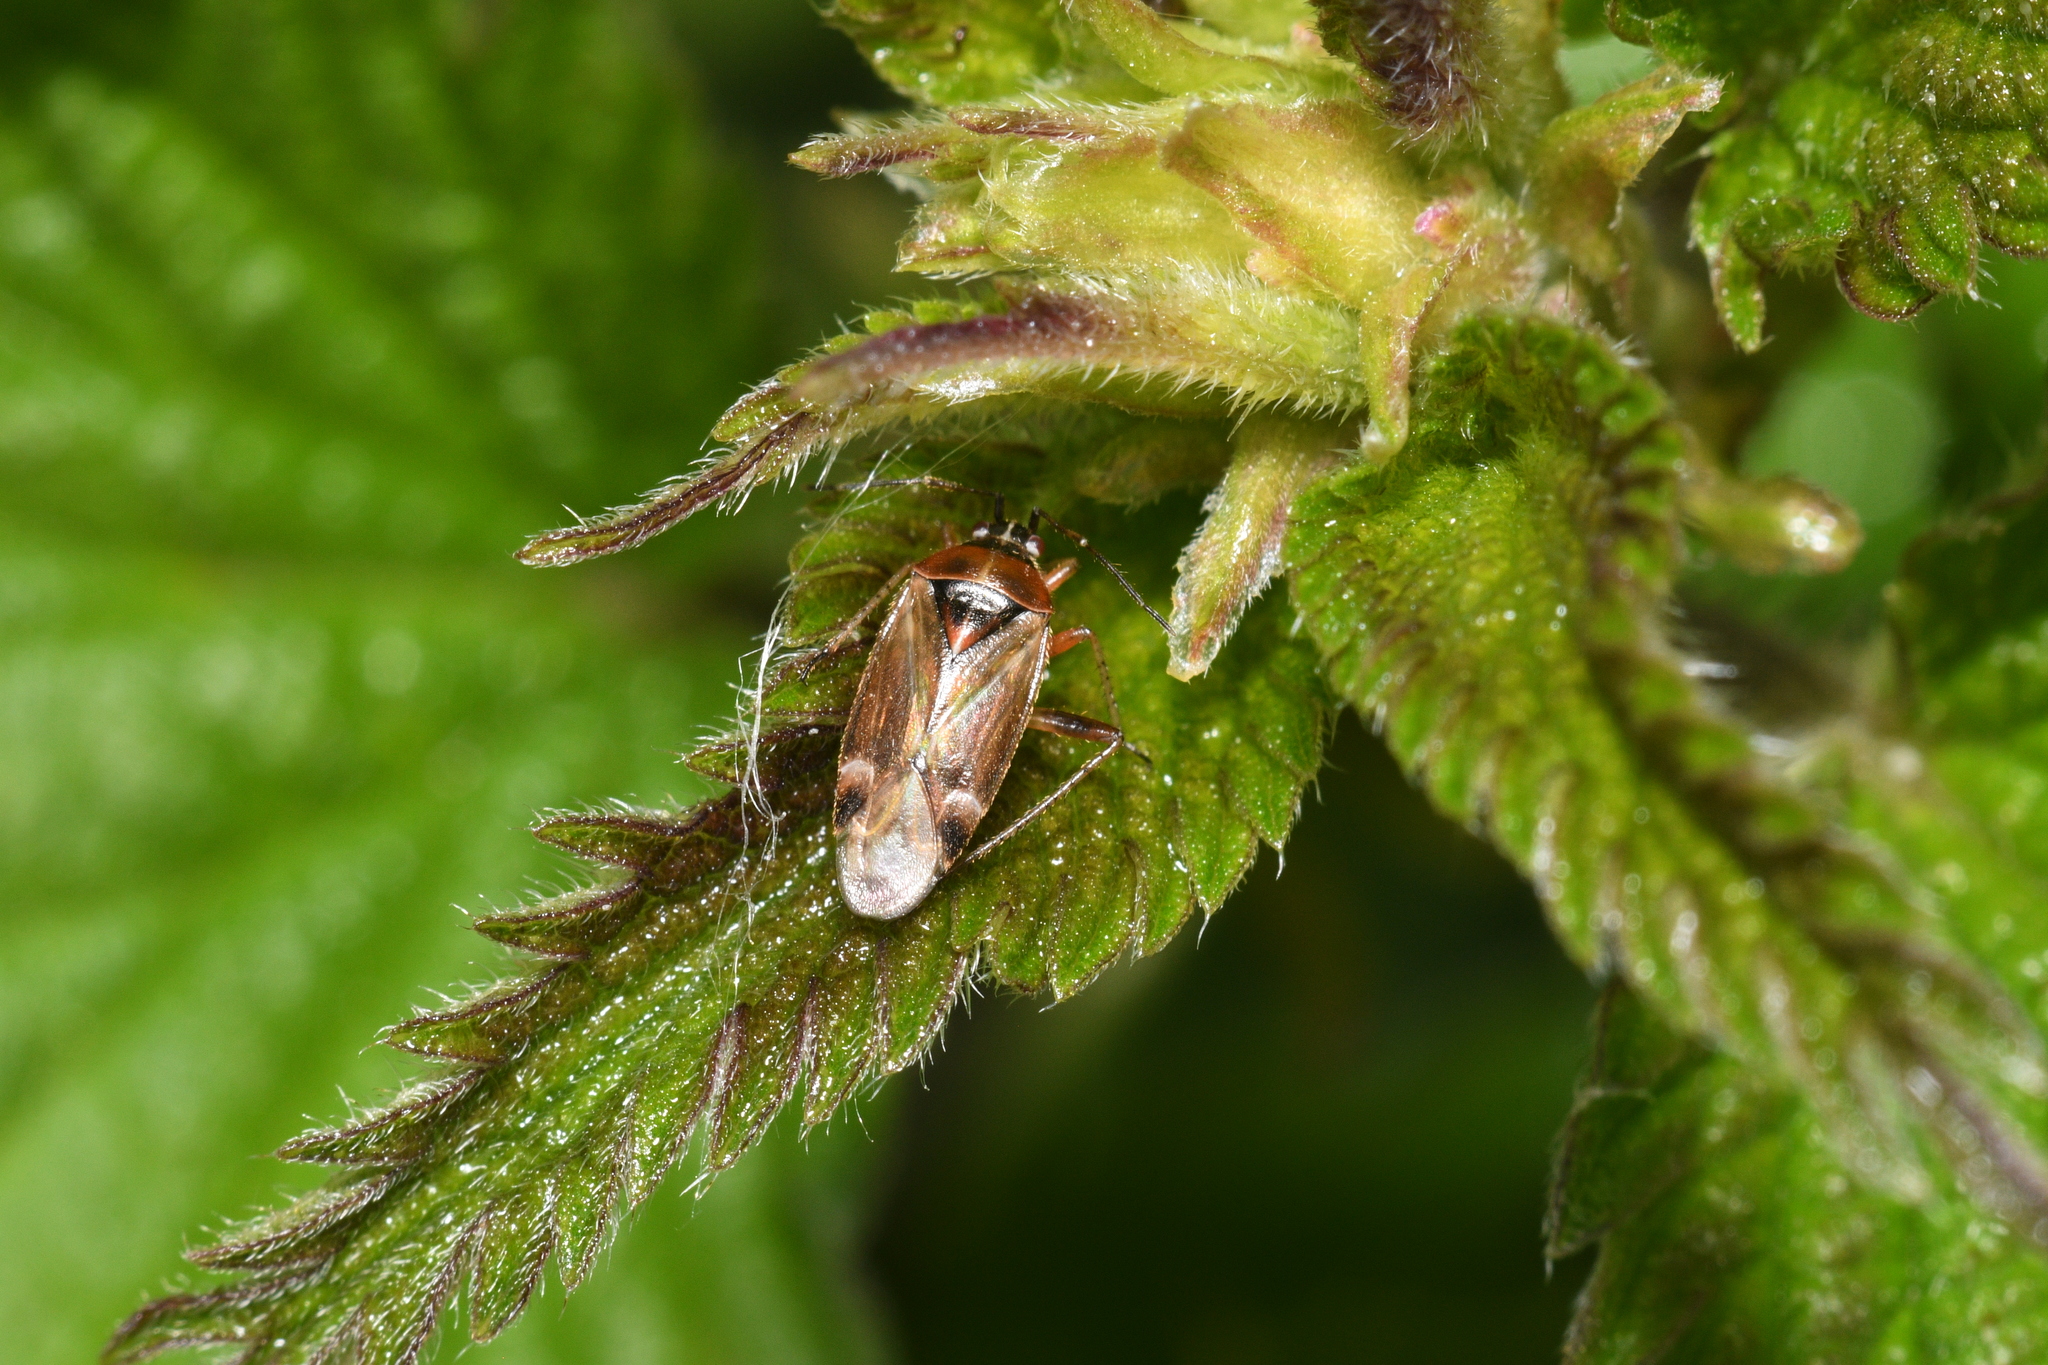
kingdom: Animalia
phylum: Arthropoda
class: Insecta
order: Hemiptera
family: Miridae
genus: Harpocera
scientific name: Harpocera thoracica
